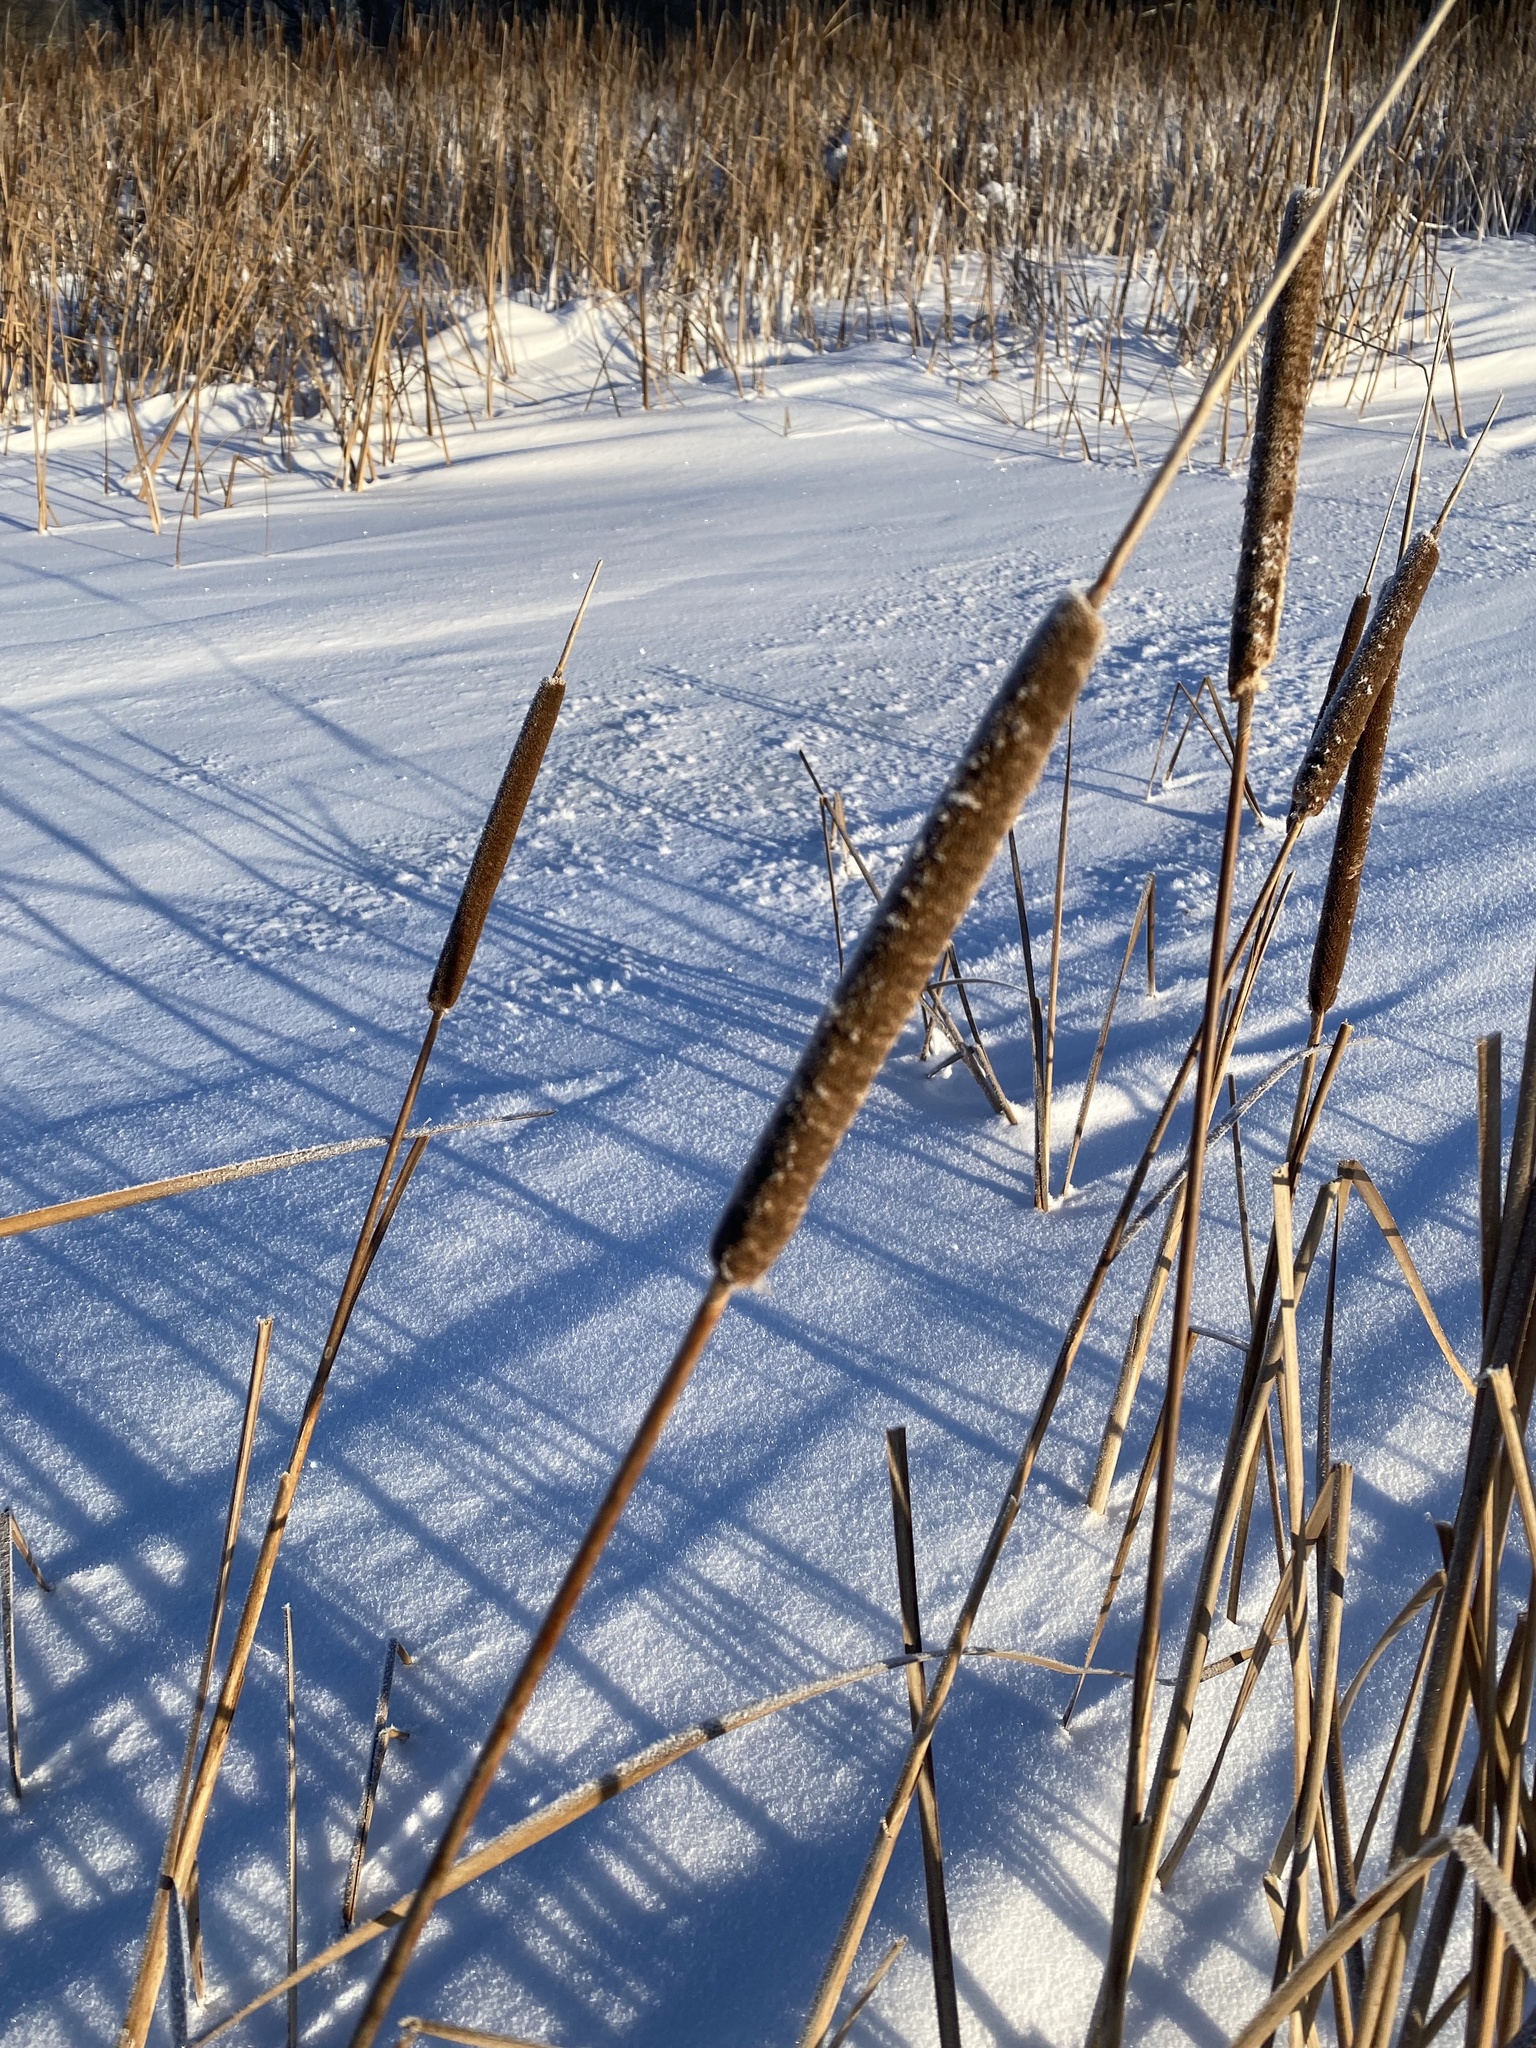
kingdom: Plantae
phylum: Tracheophyta
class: Liliopsida
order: Poales
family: Typhaceae
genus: Typha
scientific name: Typha angustifolia
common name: Lesser bulrush
